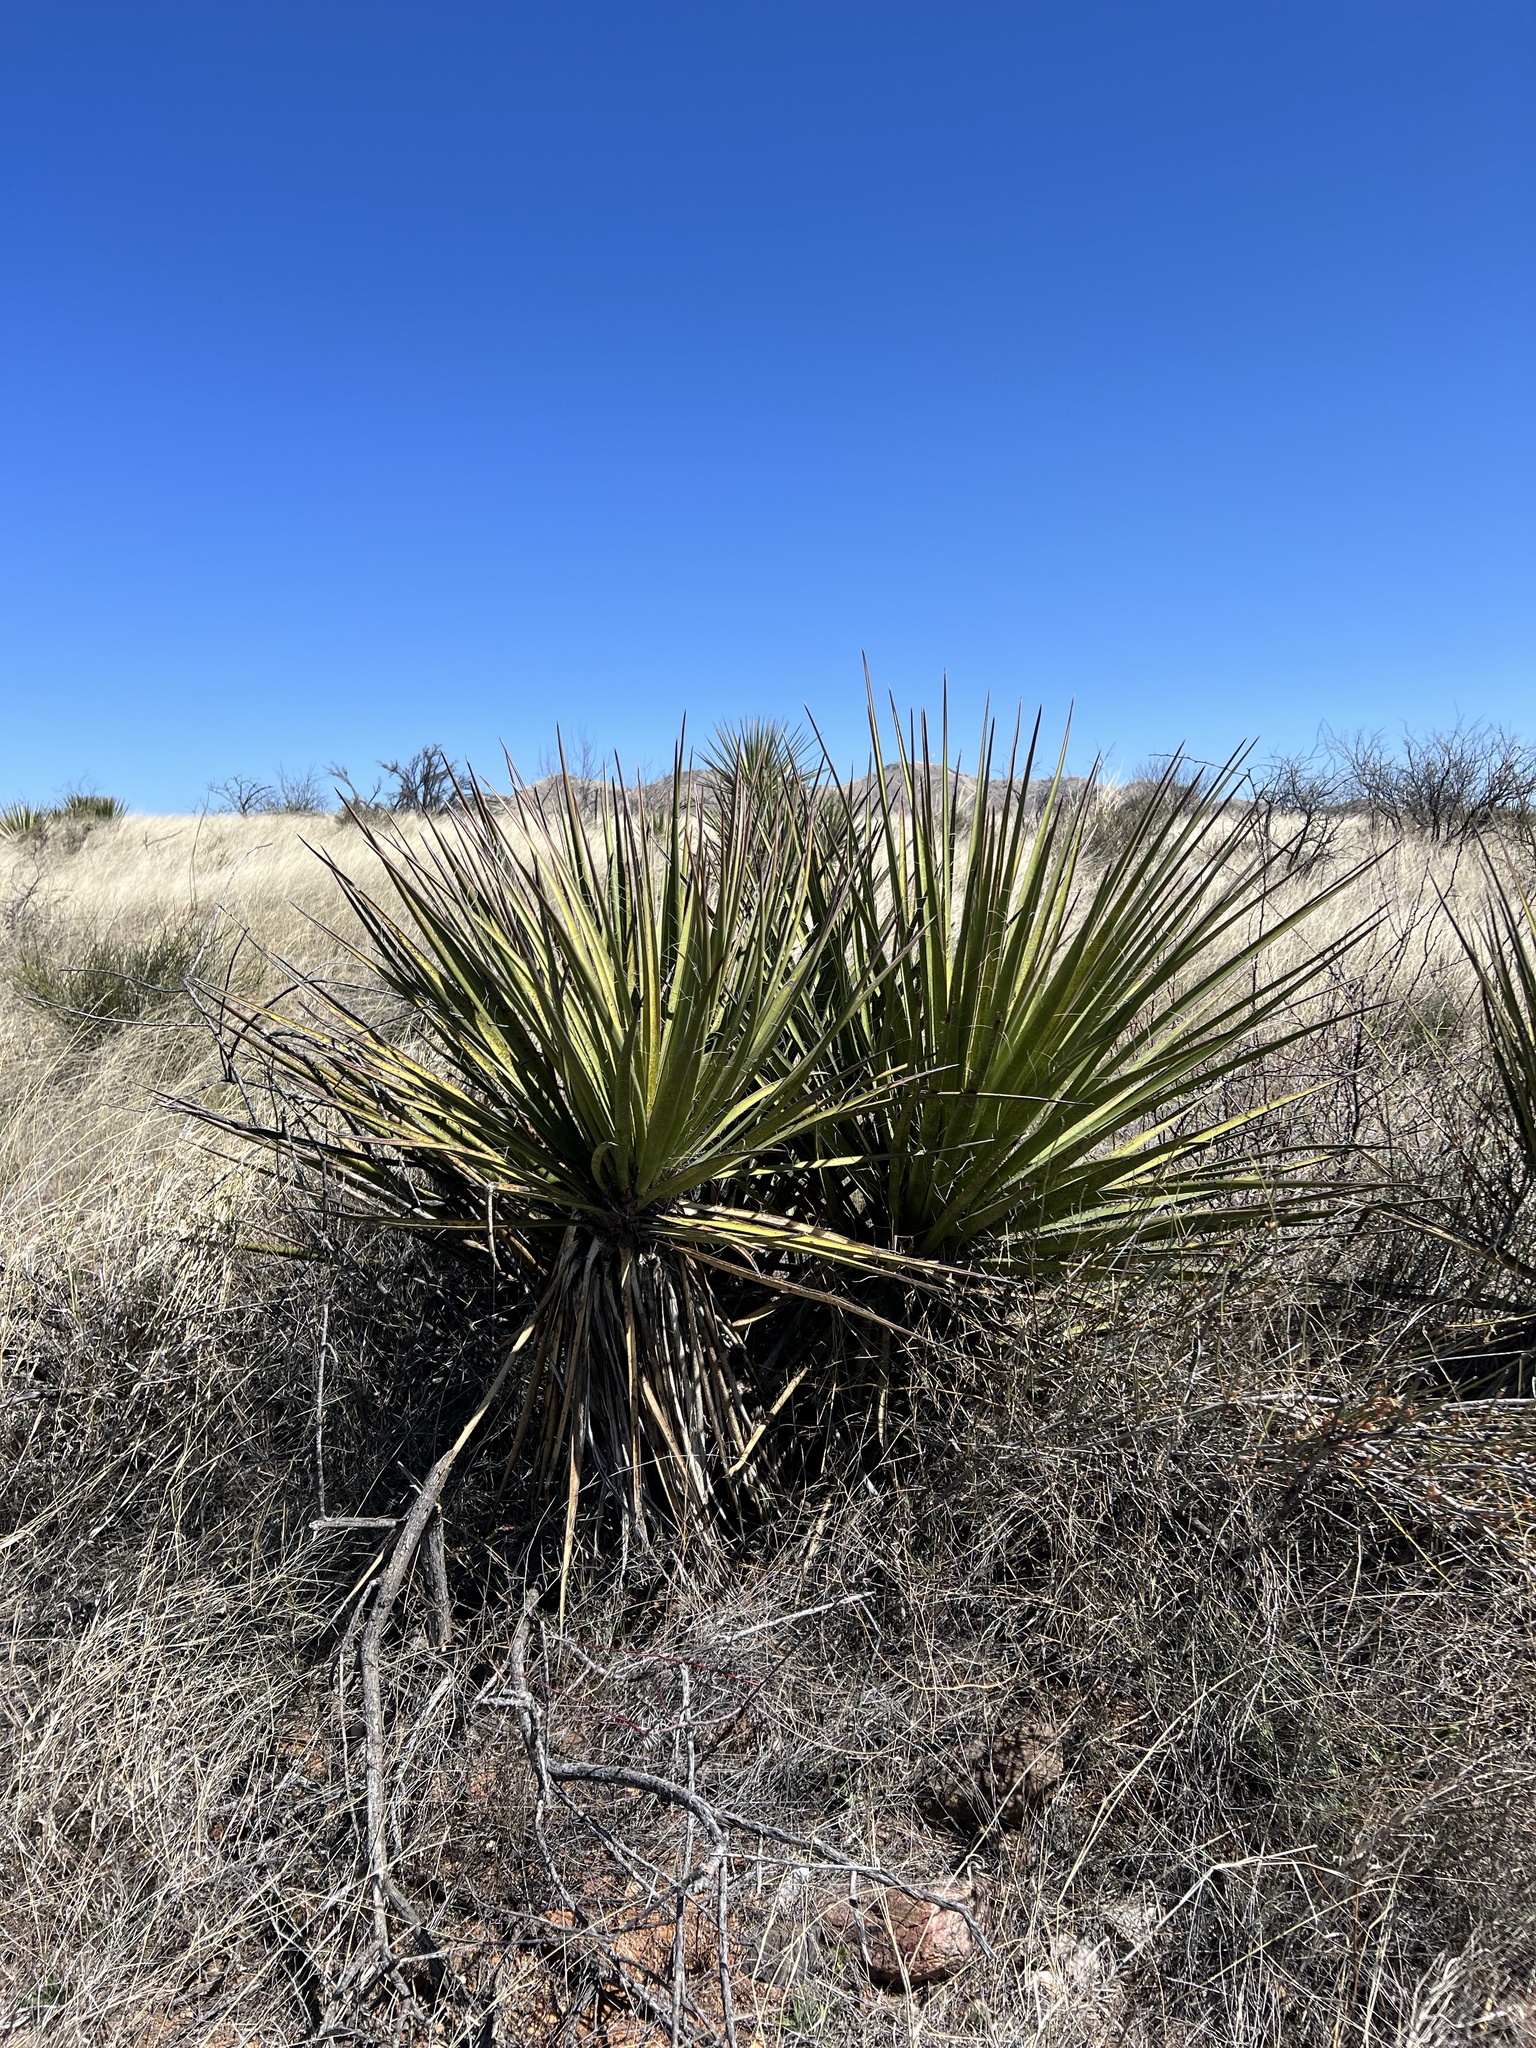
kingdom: Plantae
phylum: Tracheophyta
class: Liliopsida
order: Asparagales
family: Asparagaceae
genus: Yucca
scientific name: Yucca baccata
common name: Banana yucca
